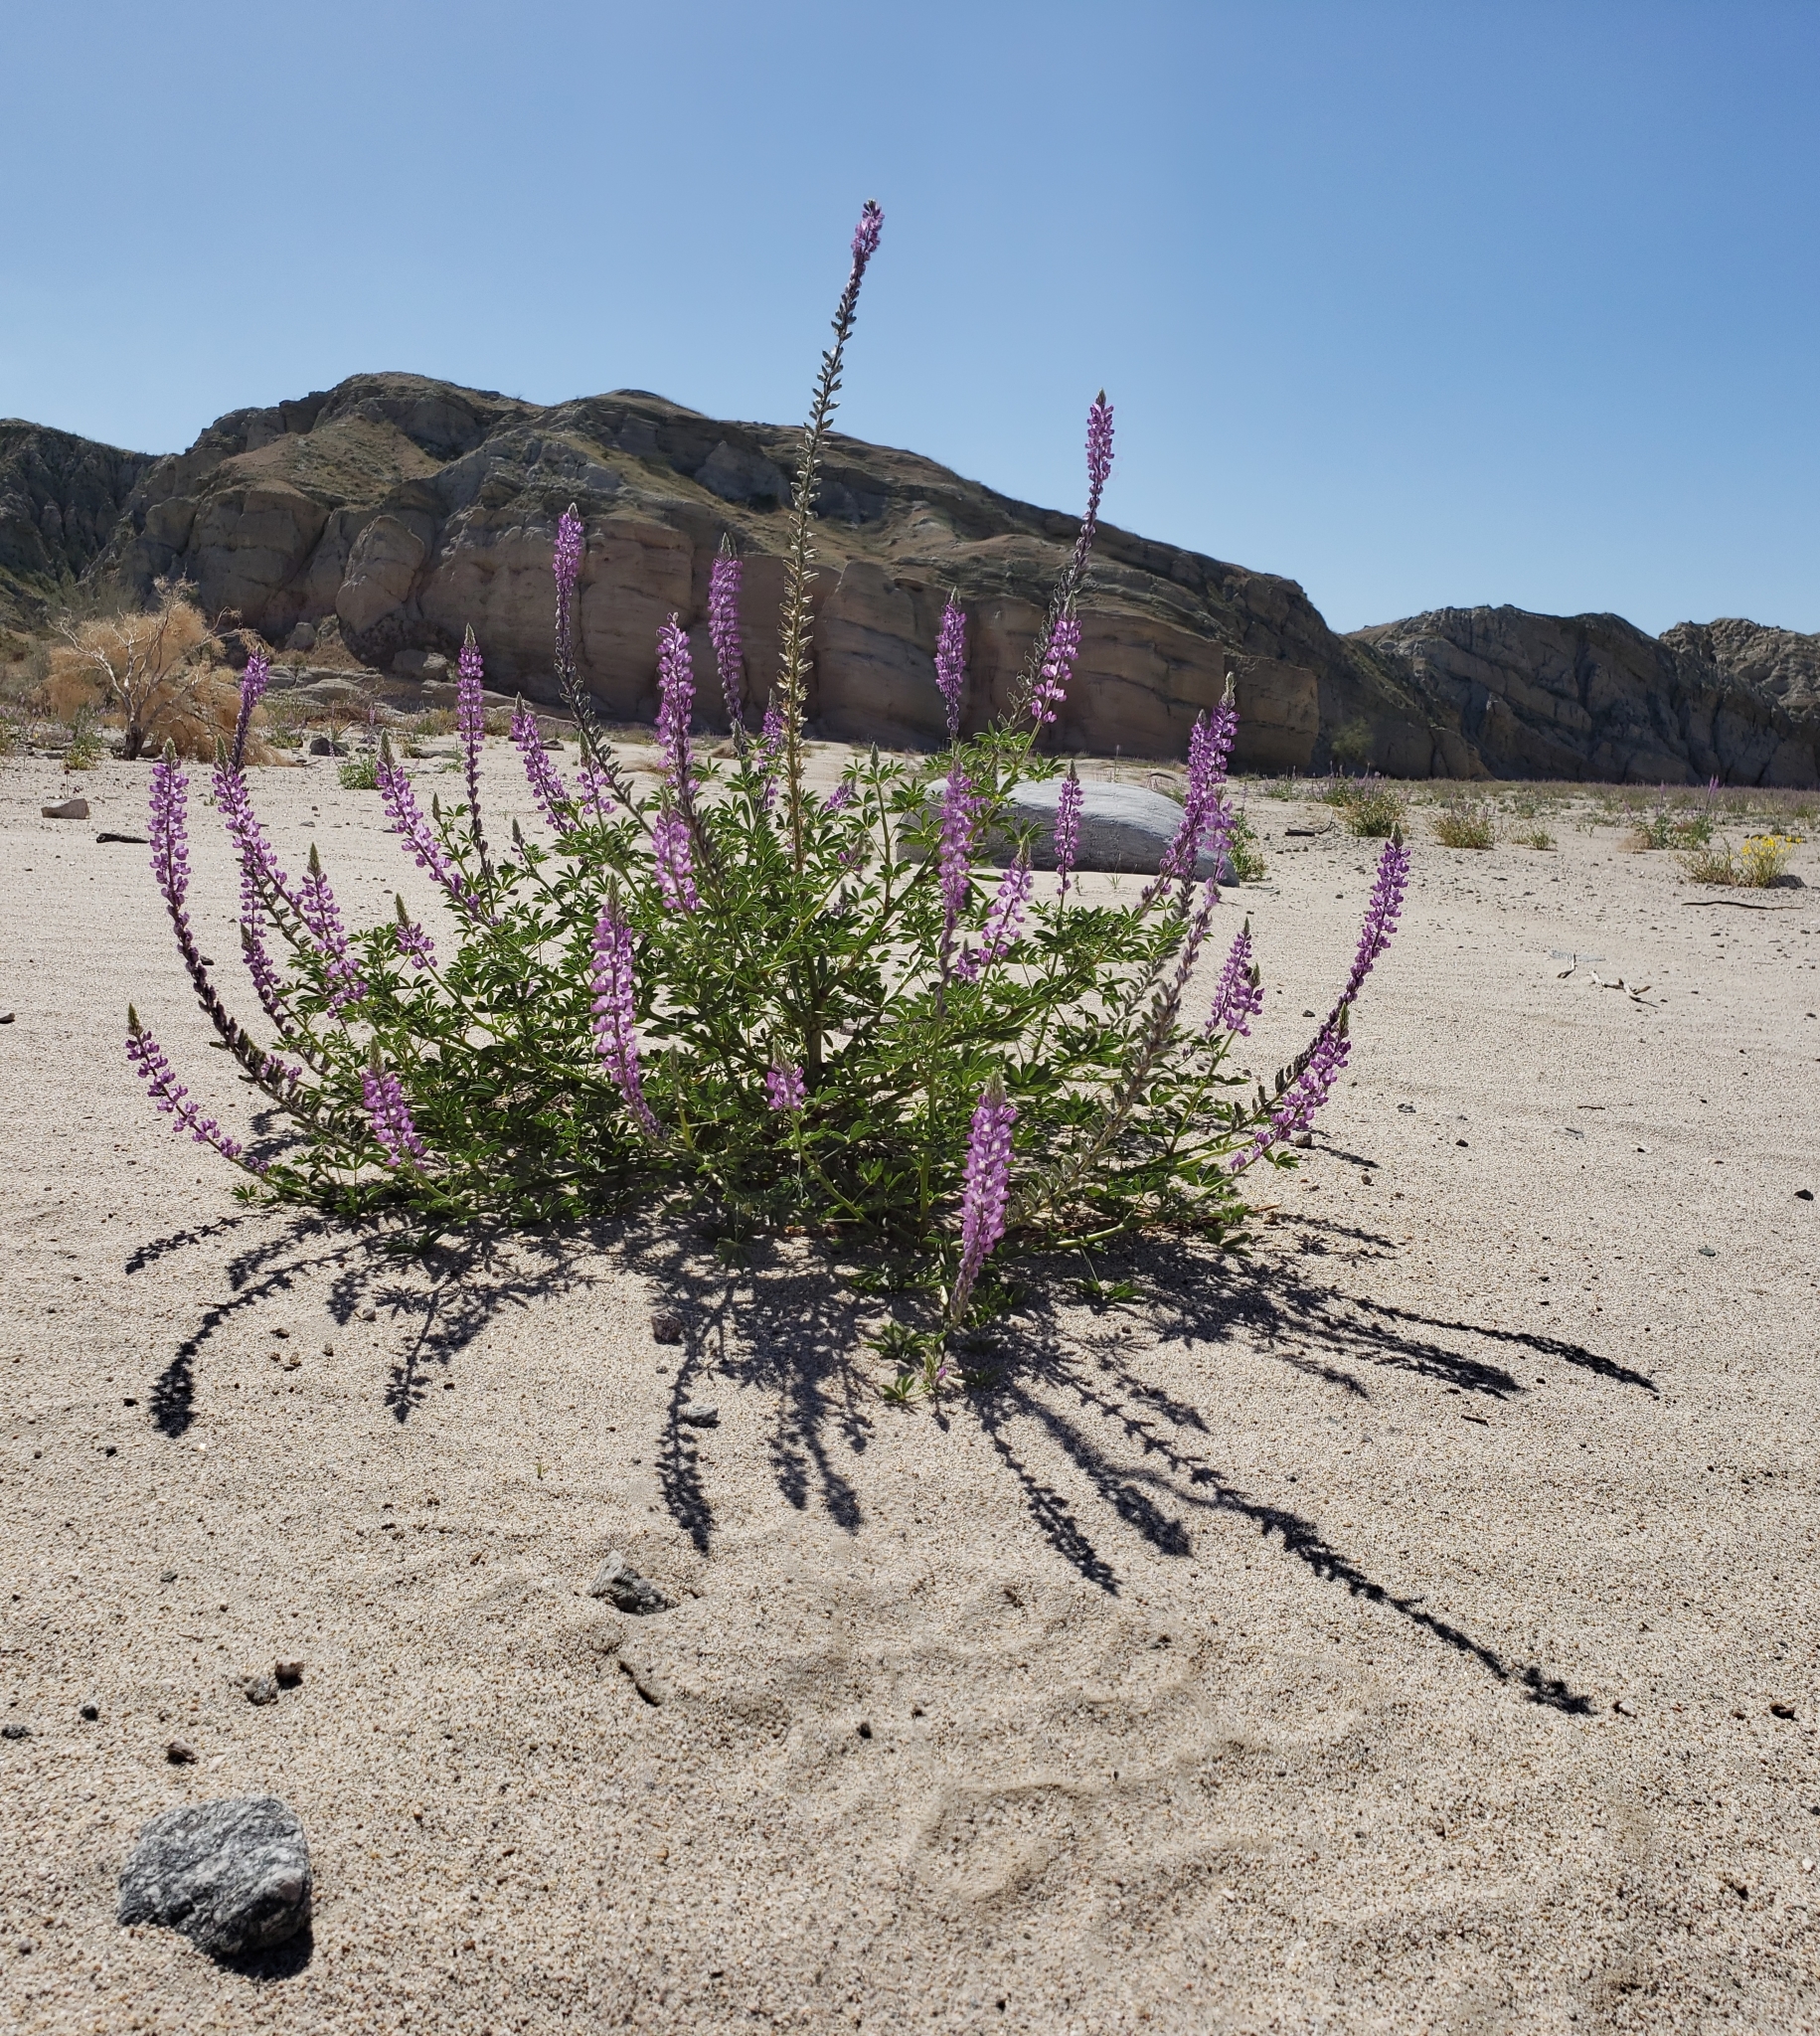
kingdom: Plantae
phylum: Tracheophyta
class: Magnoliopsida
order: Fabales
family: Fabaceae
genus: Lupinus
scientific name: Lupinus arizonicus
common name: Arizona lupine
